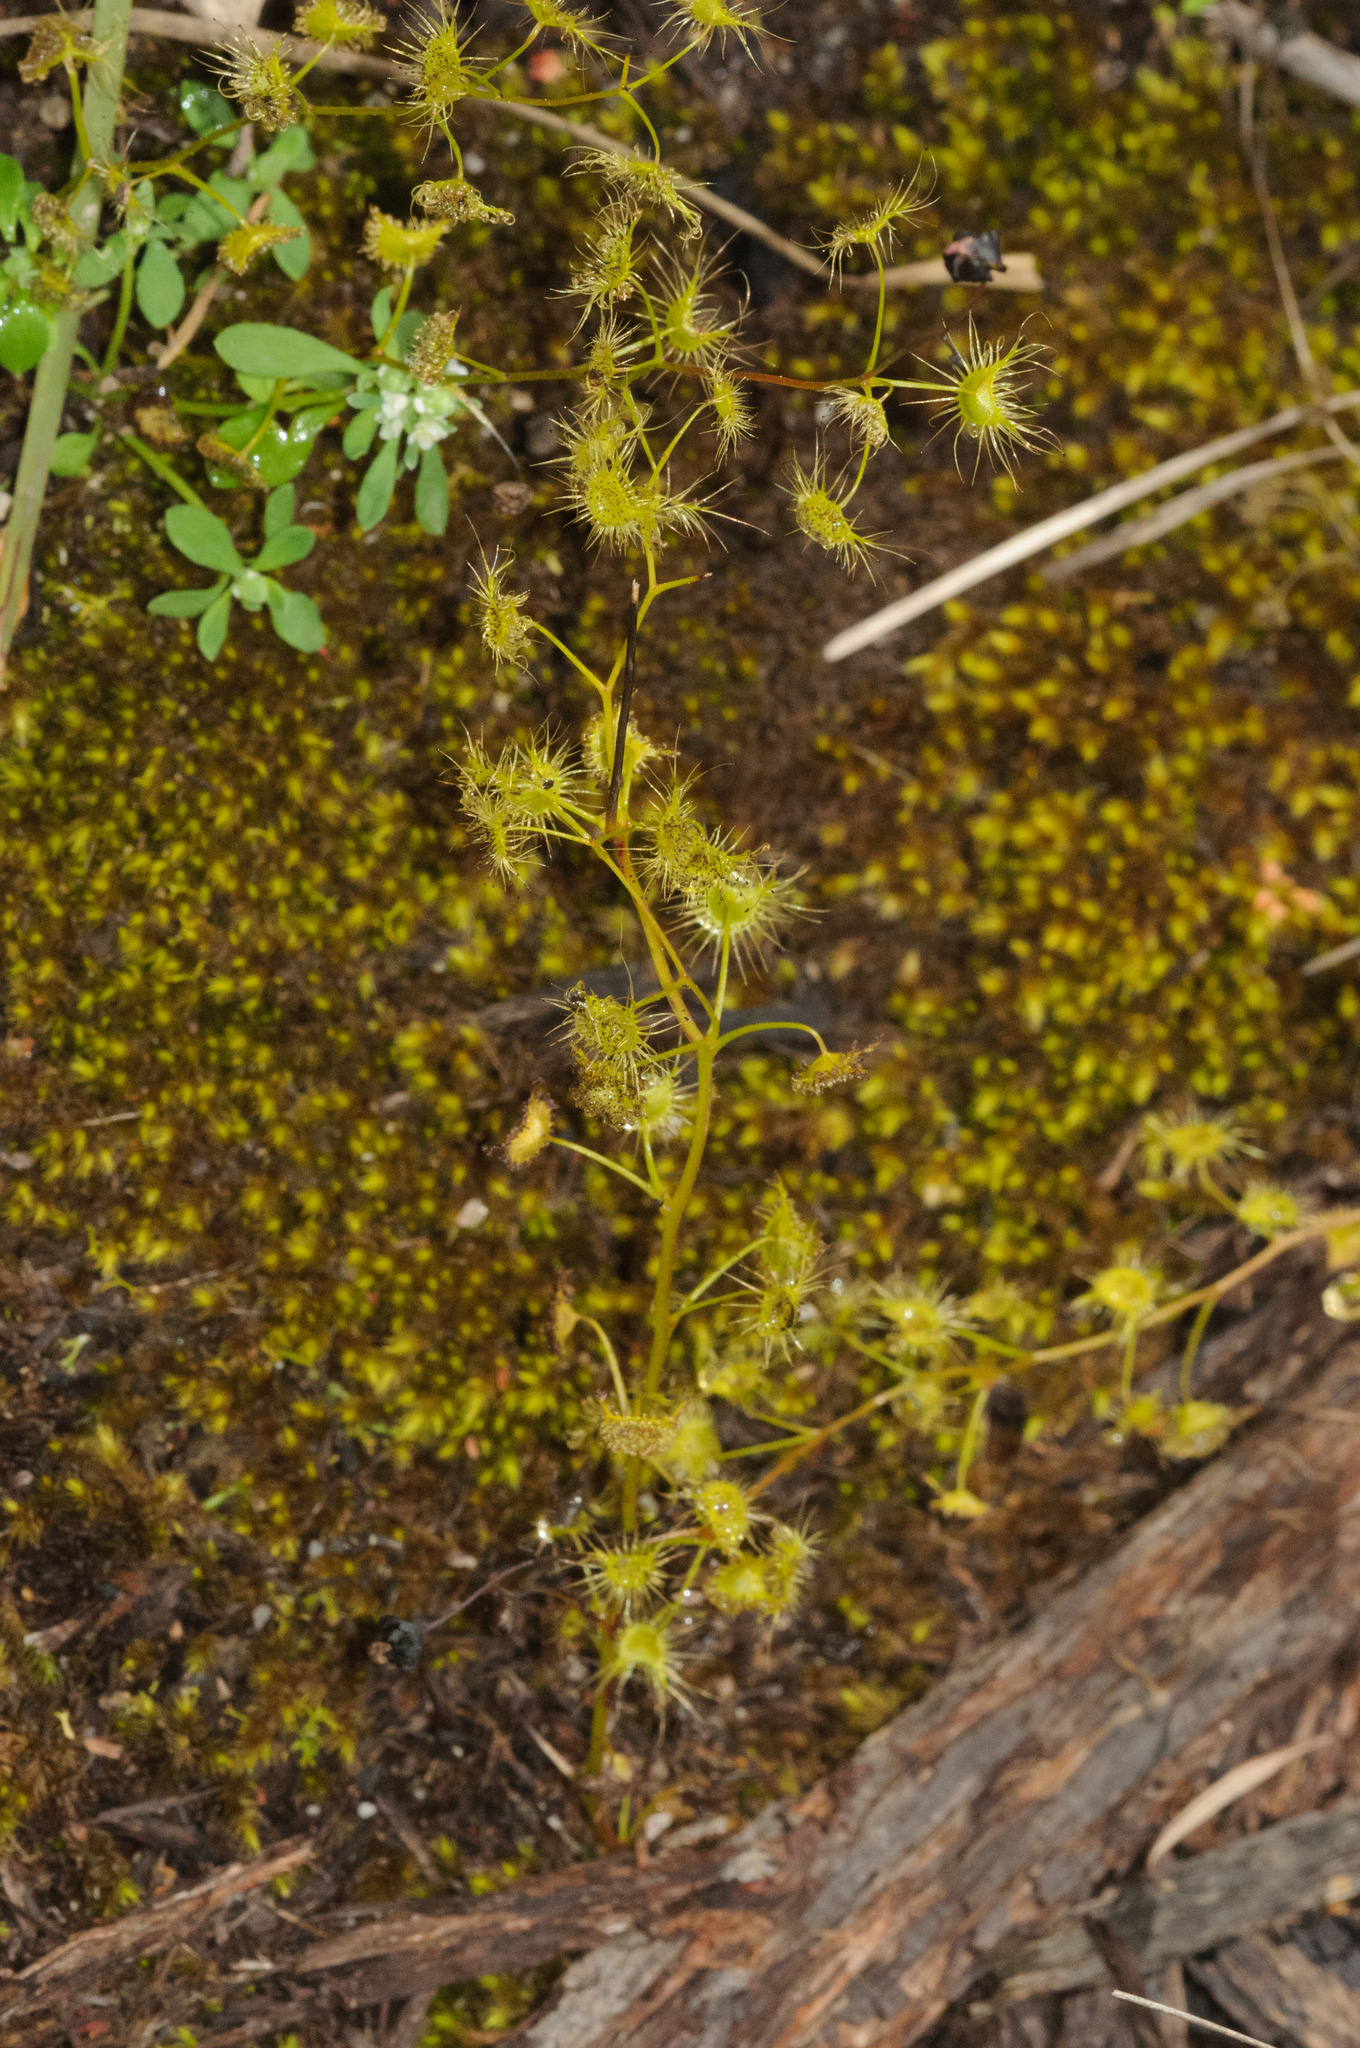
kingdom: Plantae
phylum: Tracheophyta
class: Magnoliopsida
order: Caryophyllales
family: Droseraceae
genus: Drosera
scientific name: Drosera peltata
